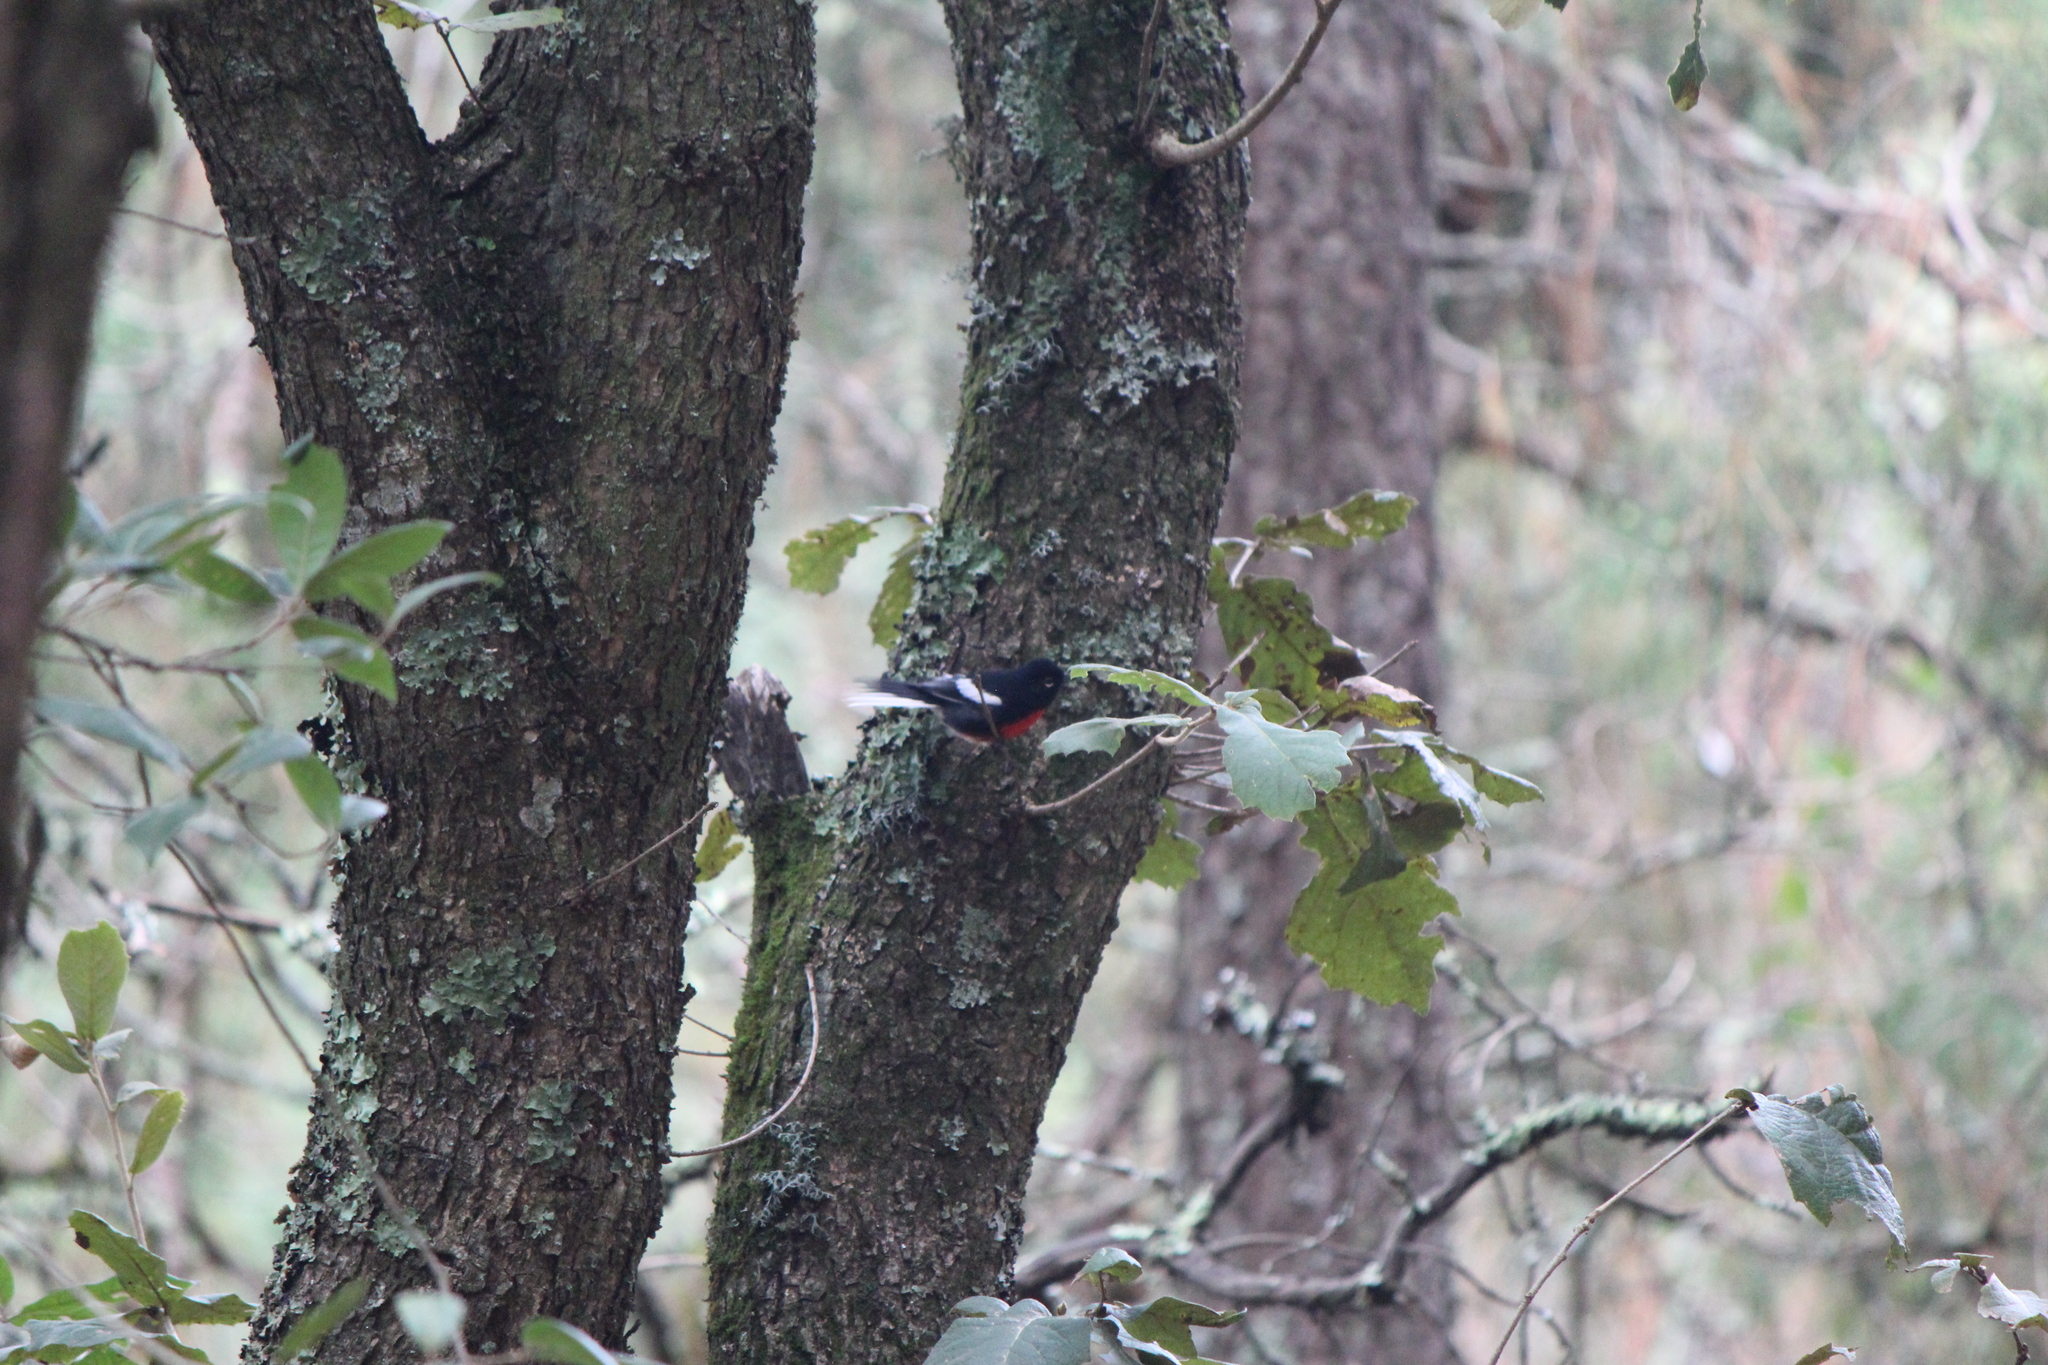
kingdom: Animalia
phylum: Chordata
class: Aves
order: Passeriformes
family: Parulidae
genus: Myioborus
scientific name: Myioborus pictus
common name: Painted whitestart
